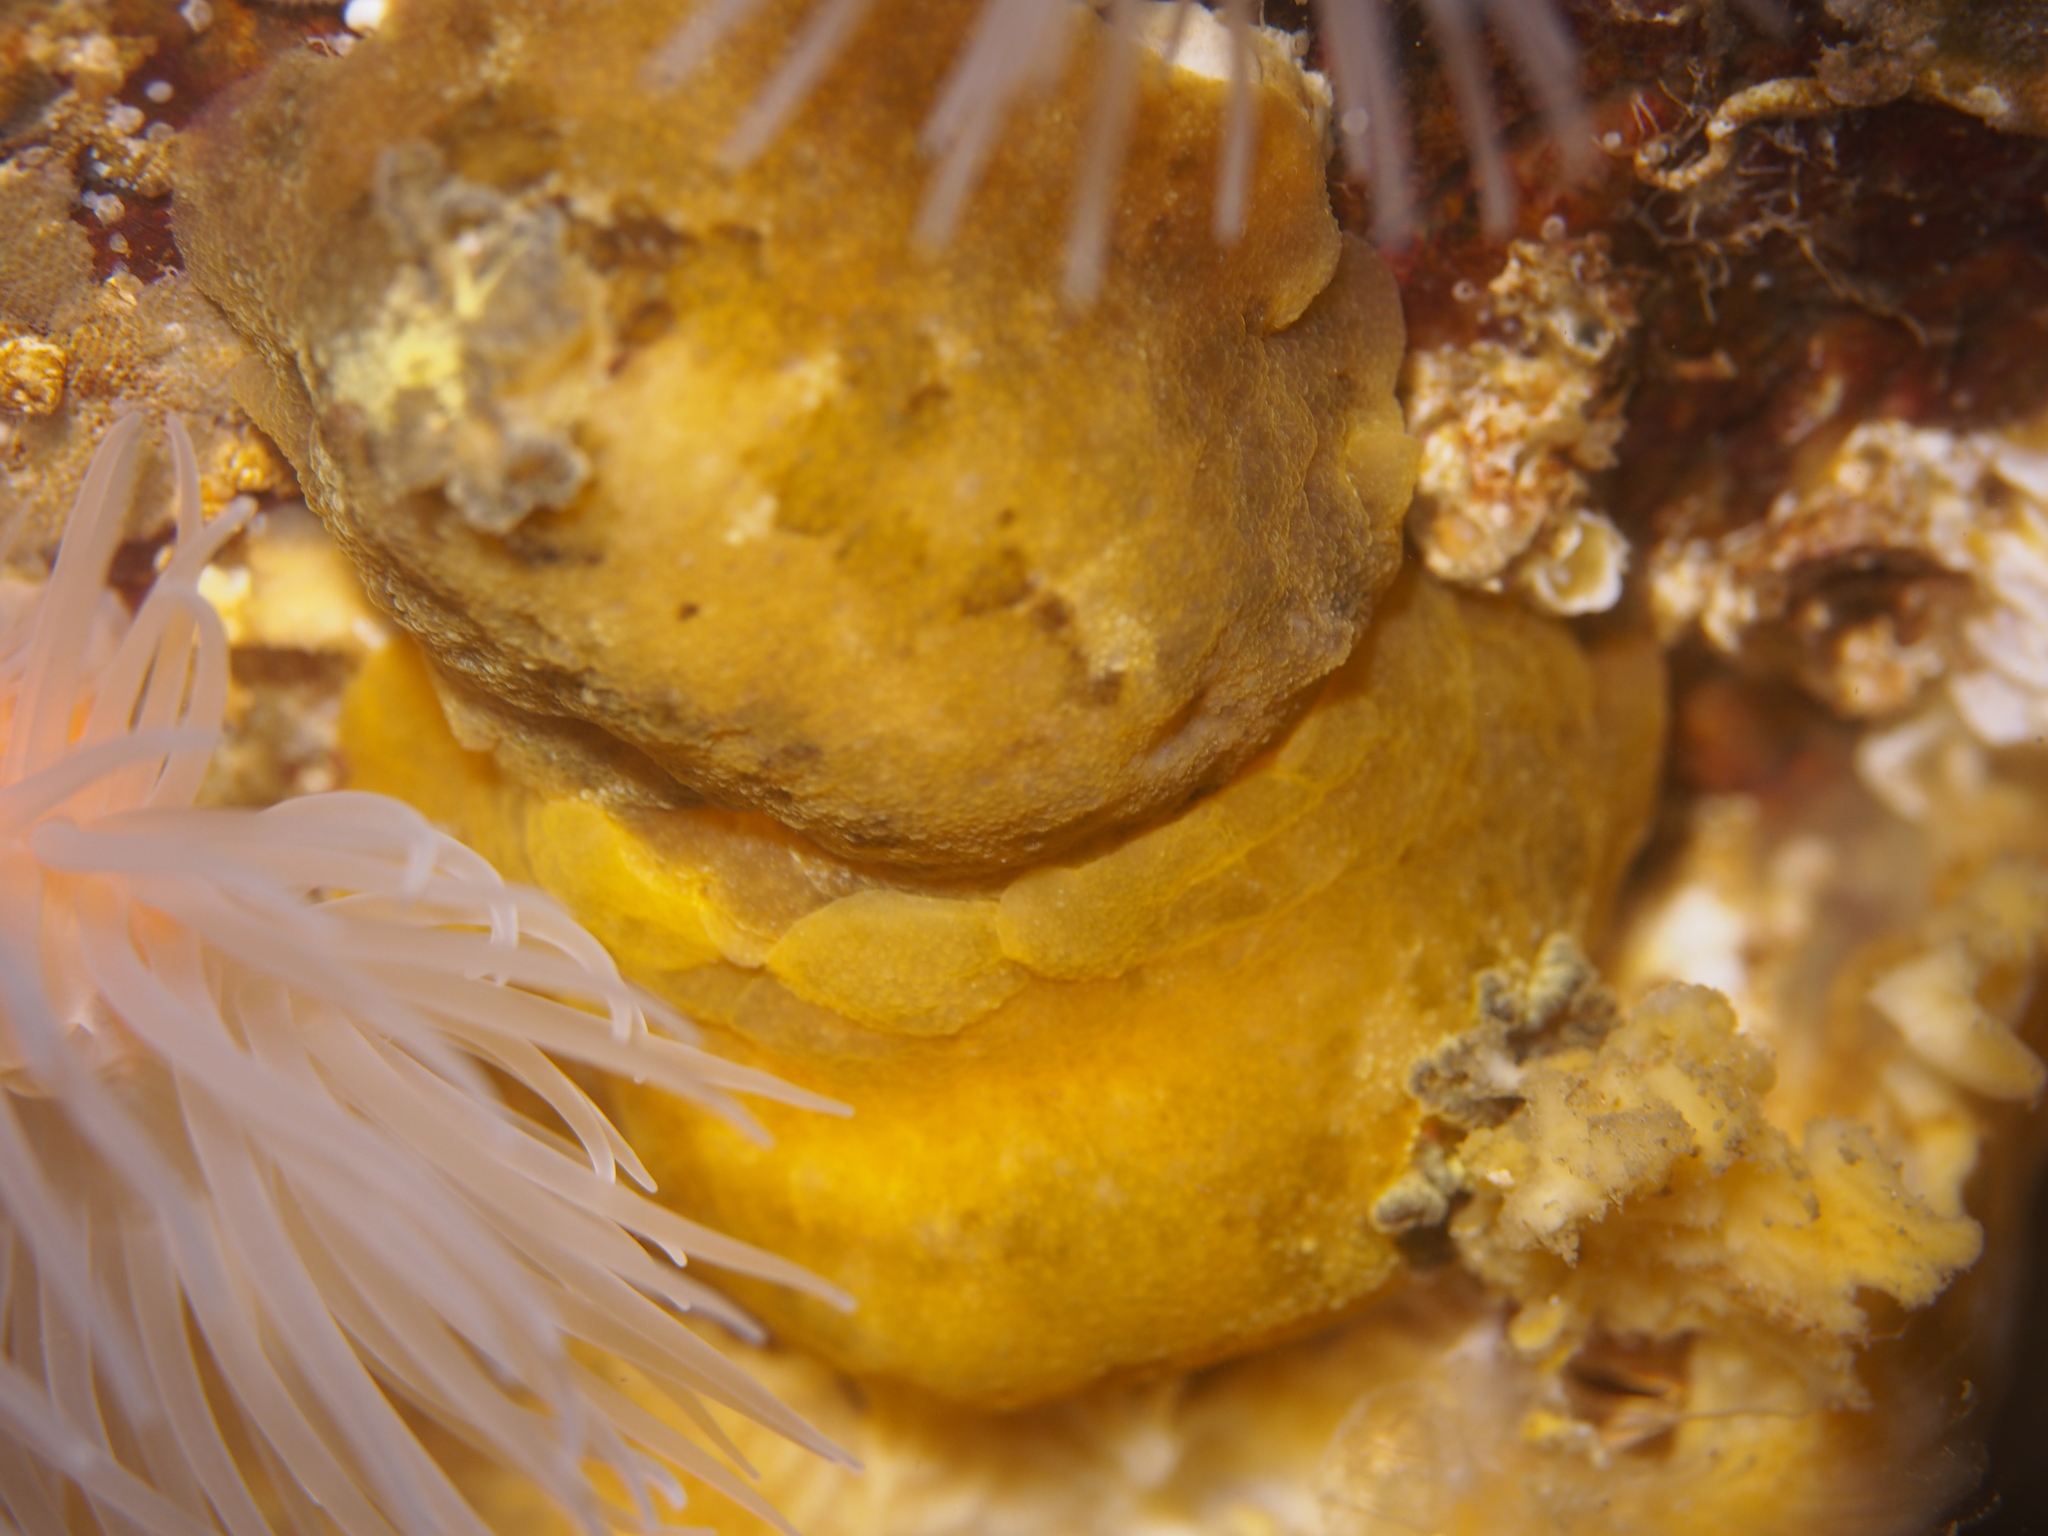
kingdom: Animalia
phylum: Mollusca
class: Gastropoda
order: Nudibranchia
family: Dorididae
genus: Doris
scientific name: Doris pseudoargus
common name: Sea lemon
